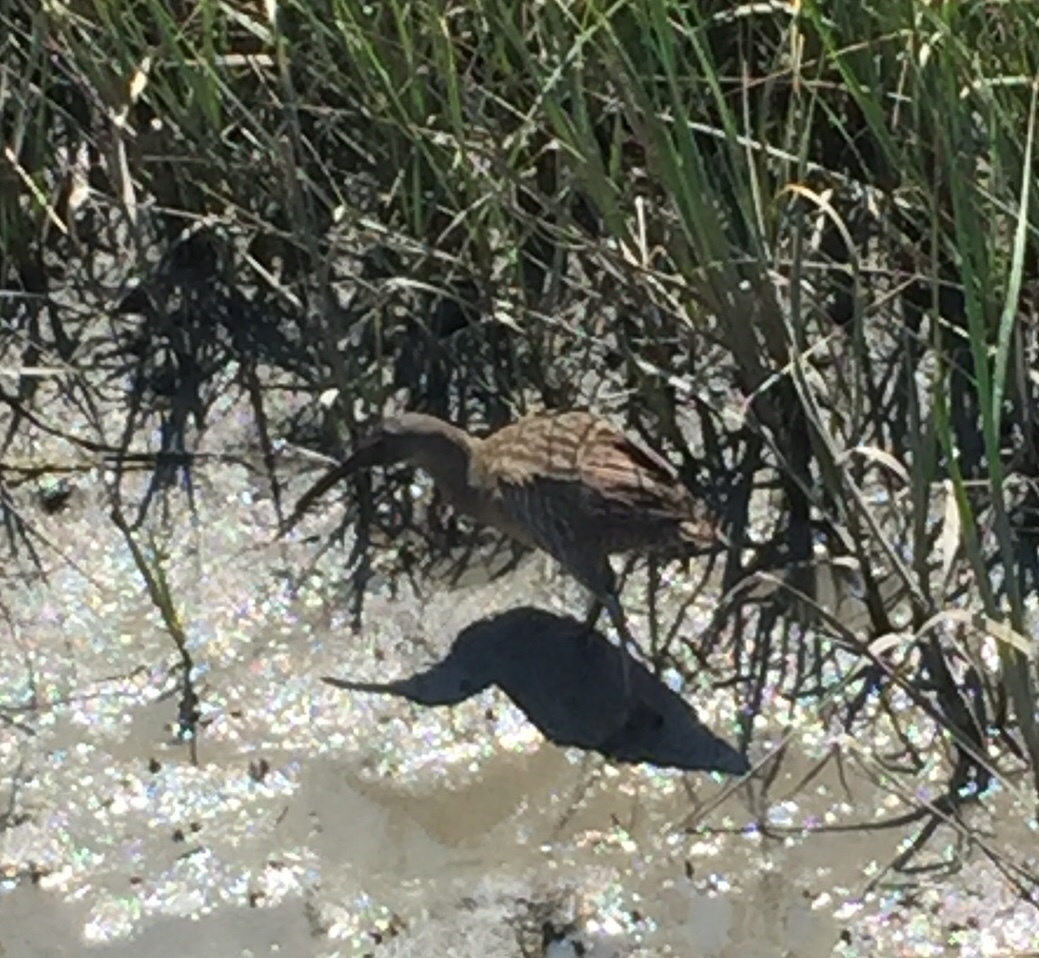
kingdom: Animalia
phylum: Chordata
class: Aves
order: Gruiformes
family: Rallidae
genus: Rallus
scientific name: Rallus crepitans
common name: Clapper rail
